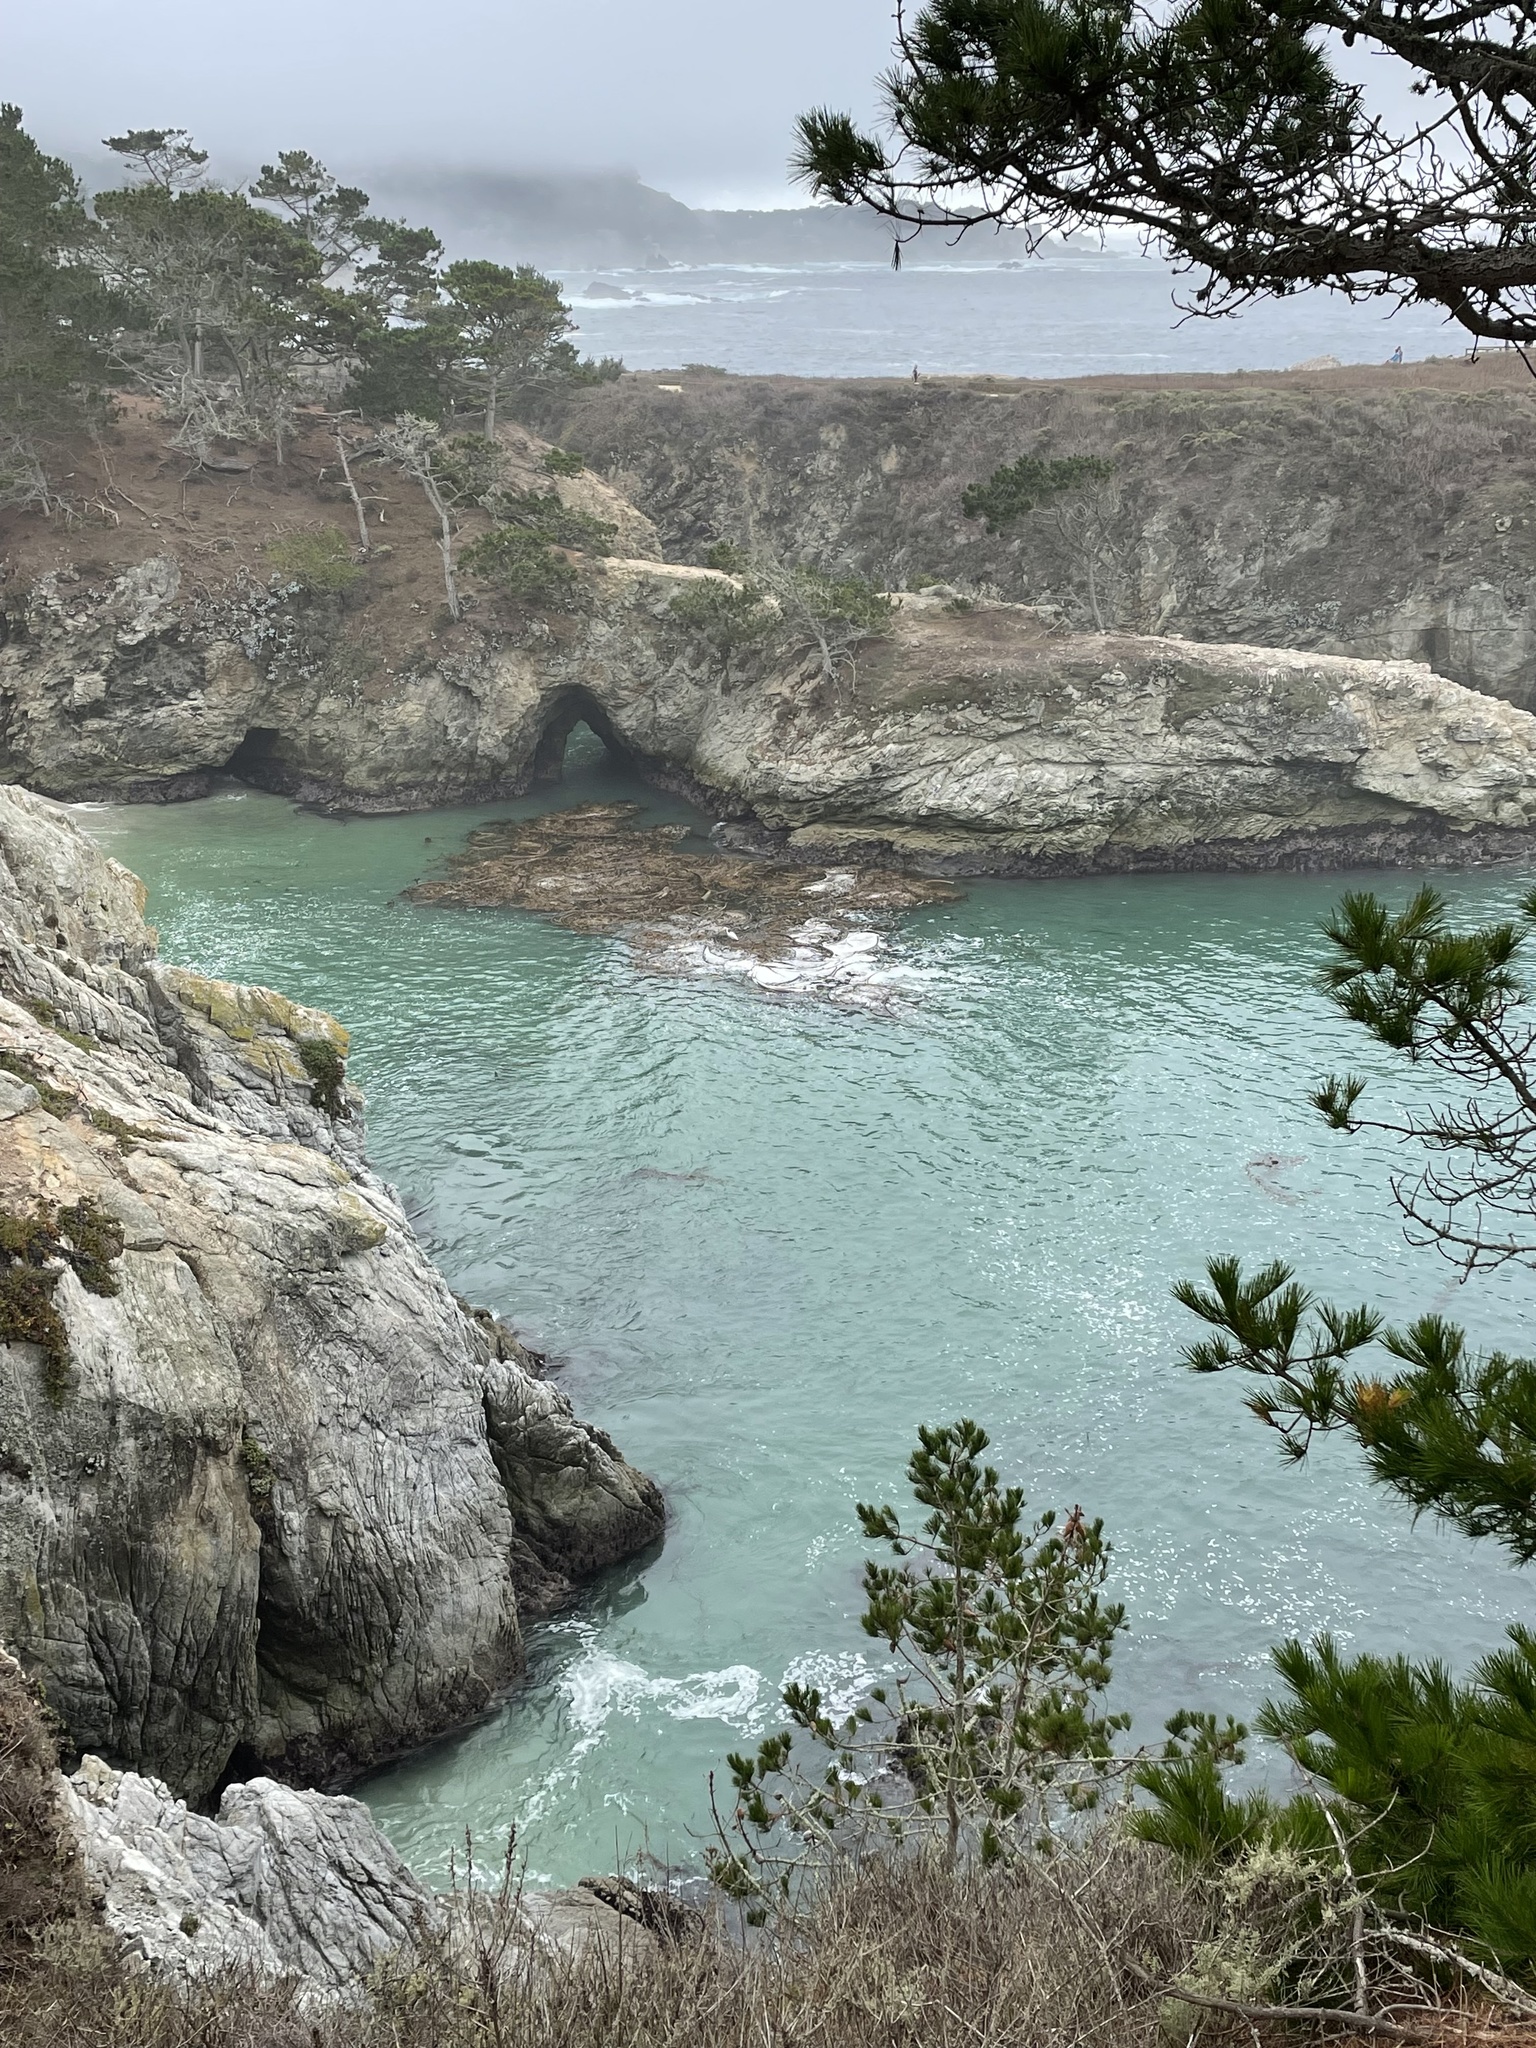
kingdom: Animalia
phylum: Chordata
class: Mammalia
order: Carnivora
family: Phocidae
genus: Phoca
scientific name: Phoca vitulina
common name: Harbor seal
